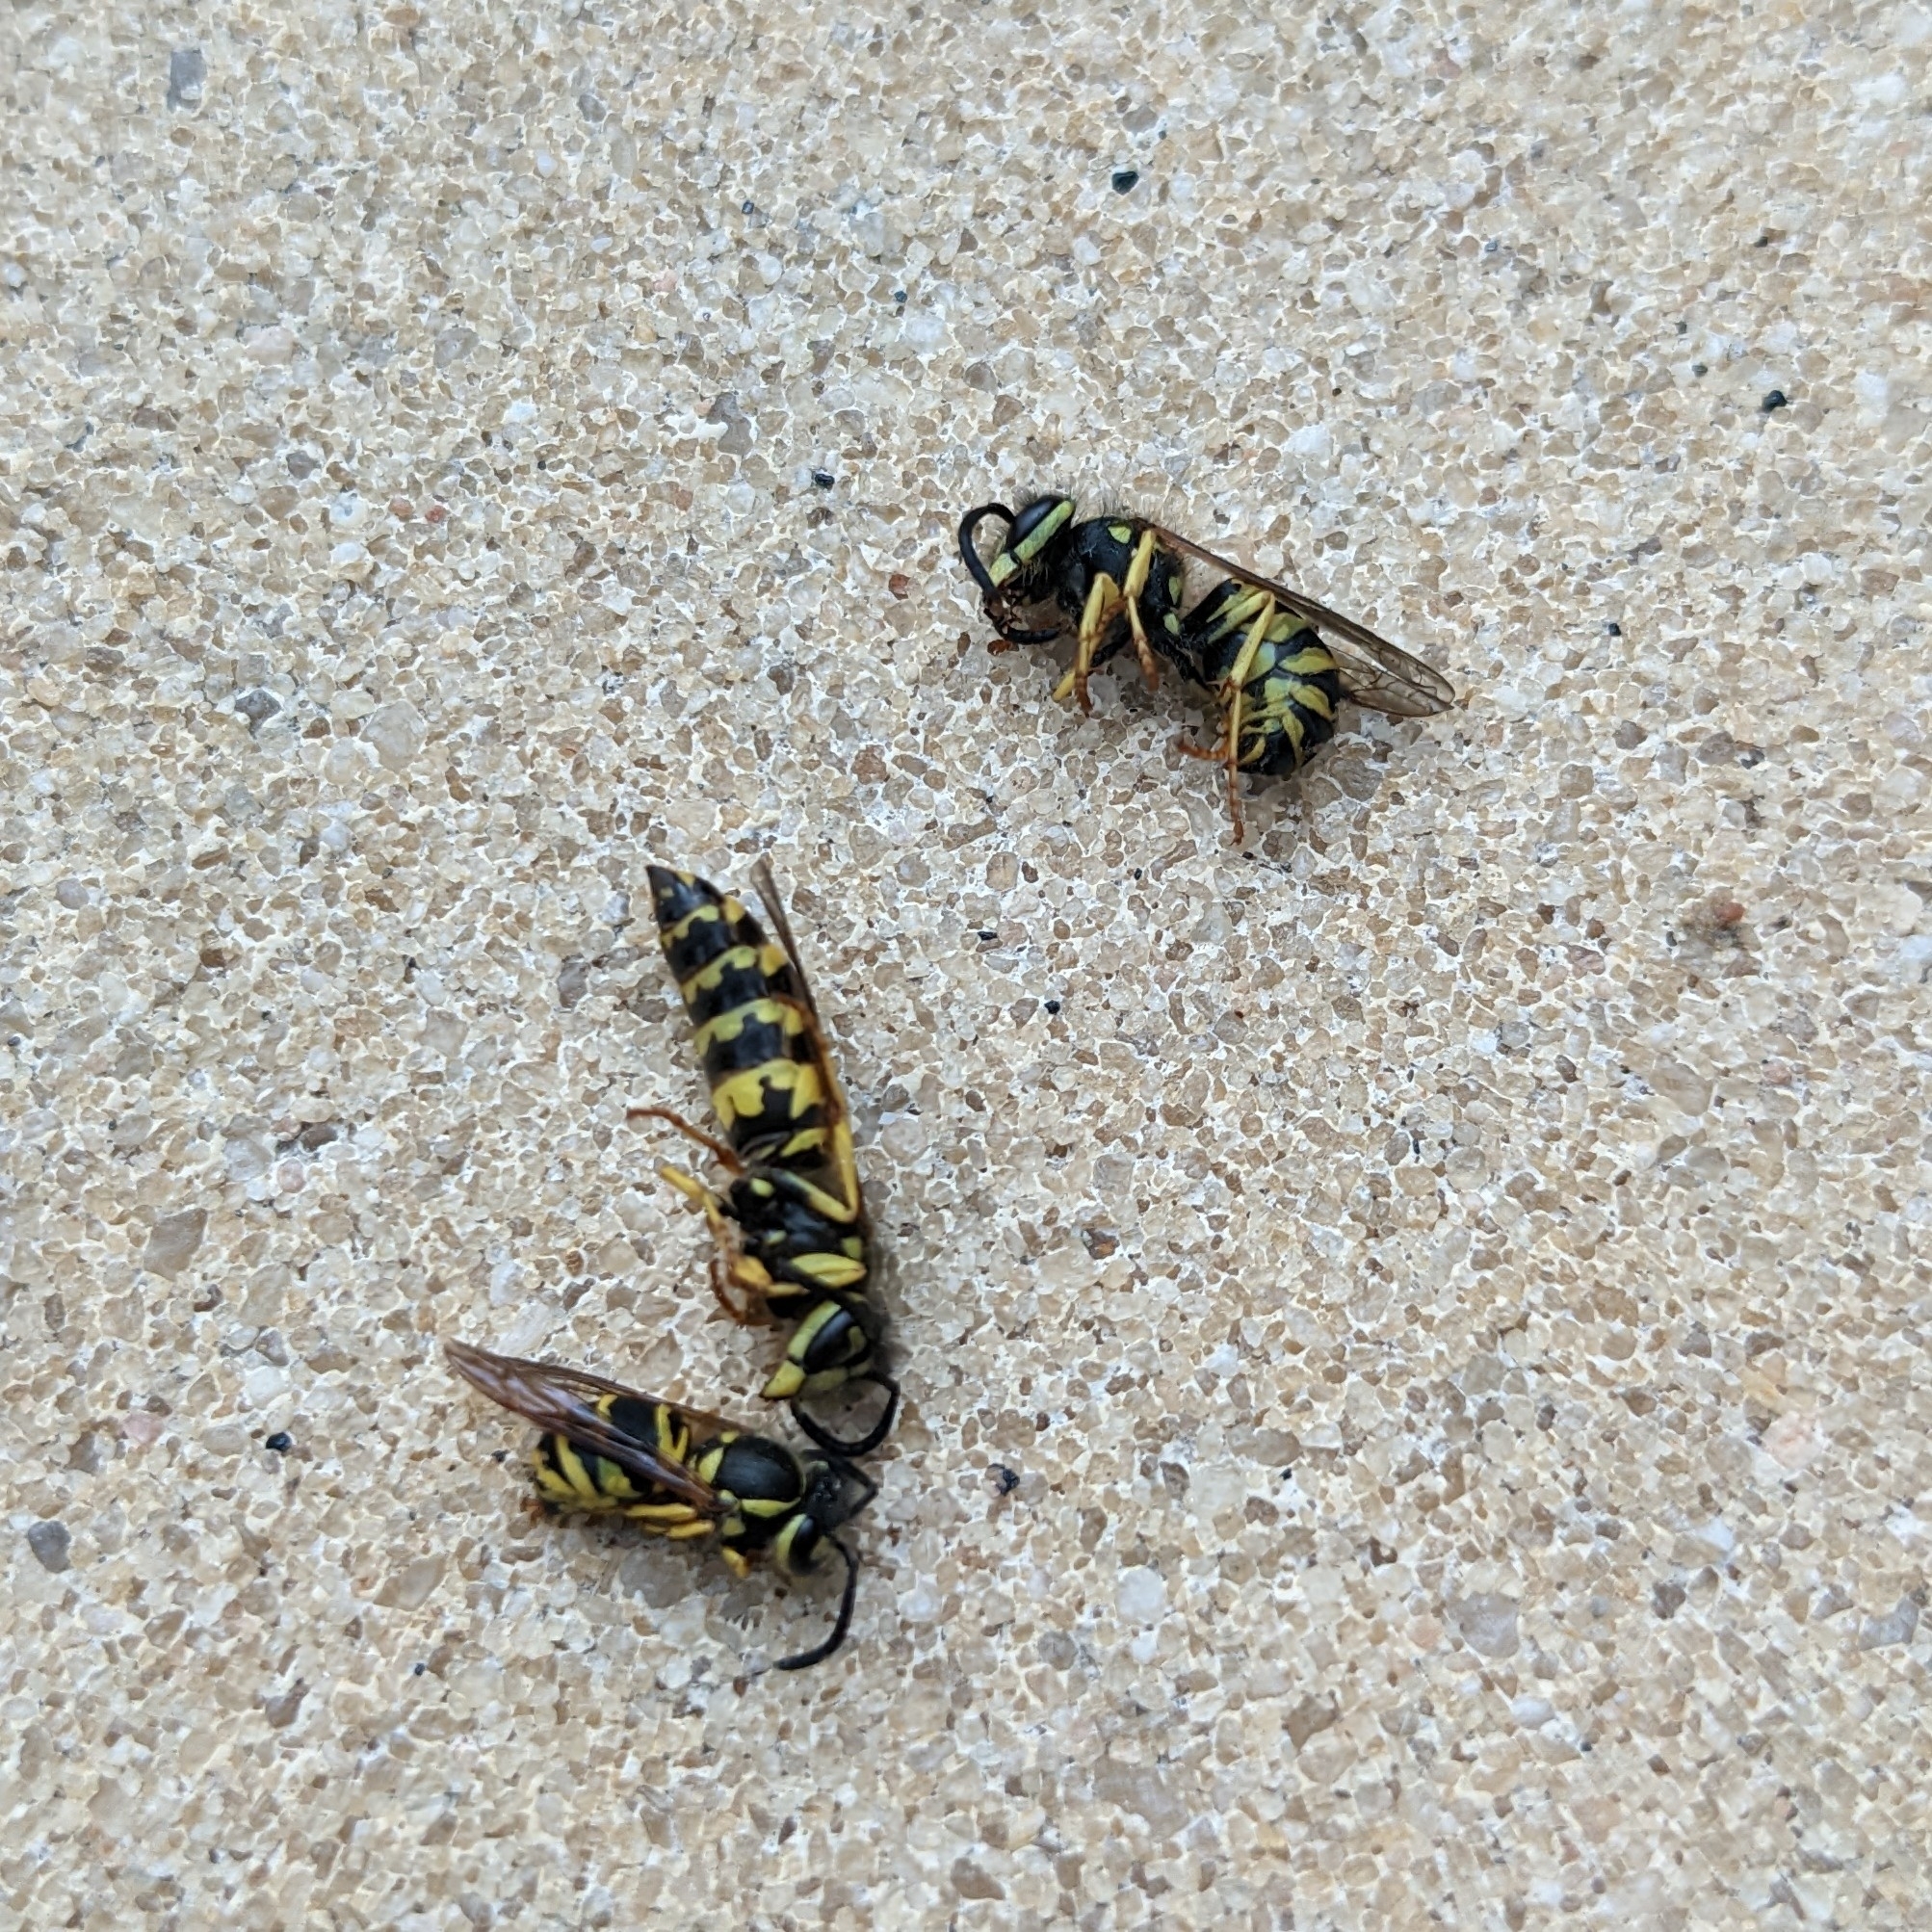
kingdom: Animalia
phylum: Arthropoda
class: Insecta
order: Hymenoptera
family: Vespidae
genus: Vespula
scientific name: Vespula maculifrons
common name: Eastern yellowjacket
